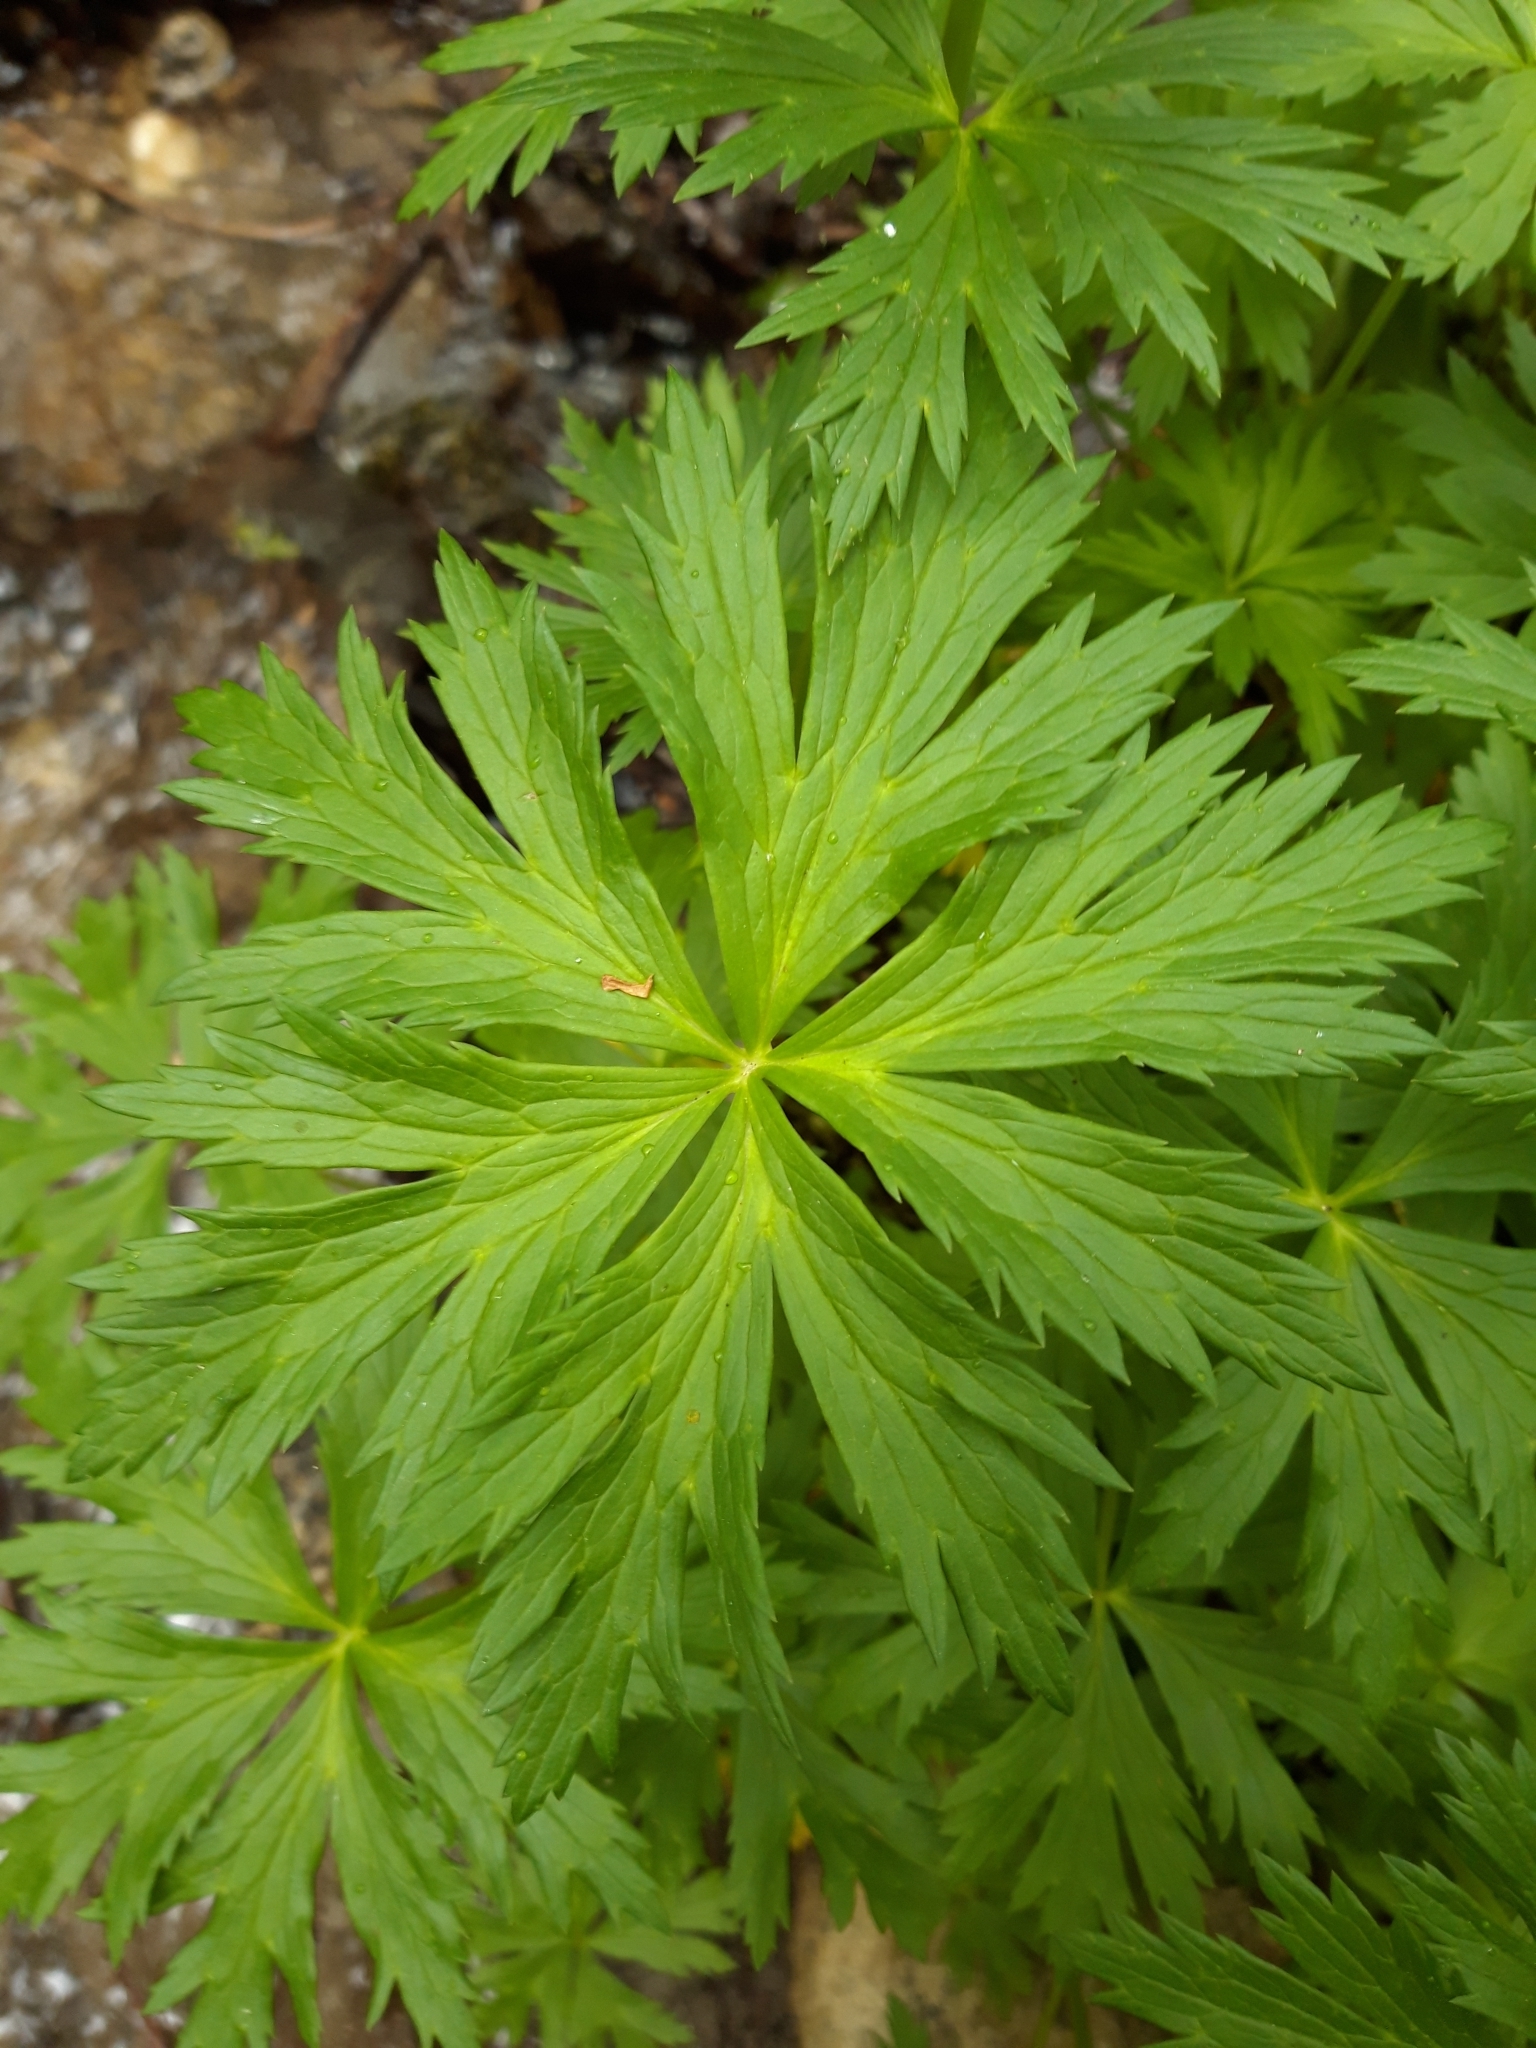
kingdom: Plantae
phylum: Tracheophyta
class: Magnoliopsida
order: Ranunculales
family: Ranunculaceae
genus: Trollius
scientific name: Trollius europaeus
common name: European globeflower
